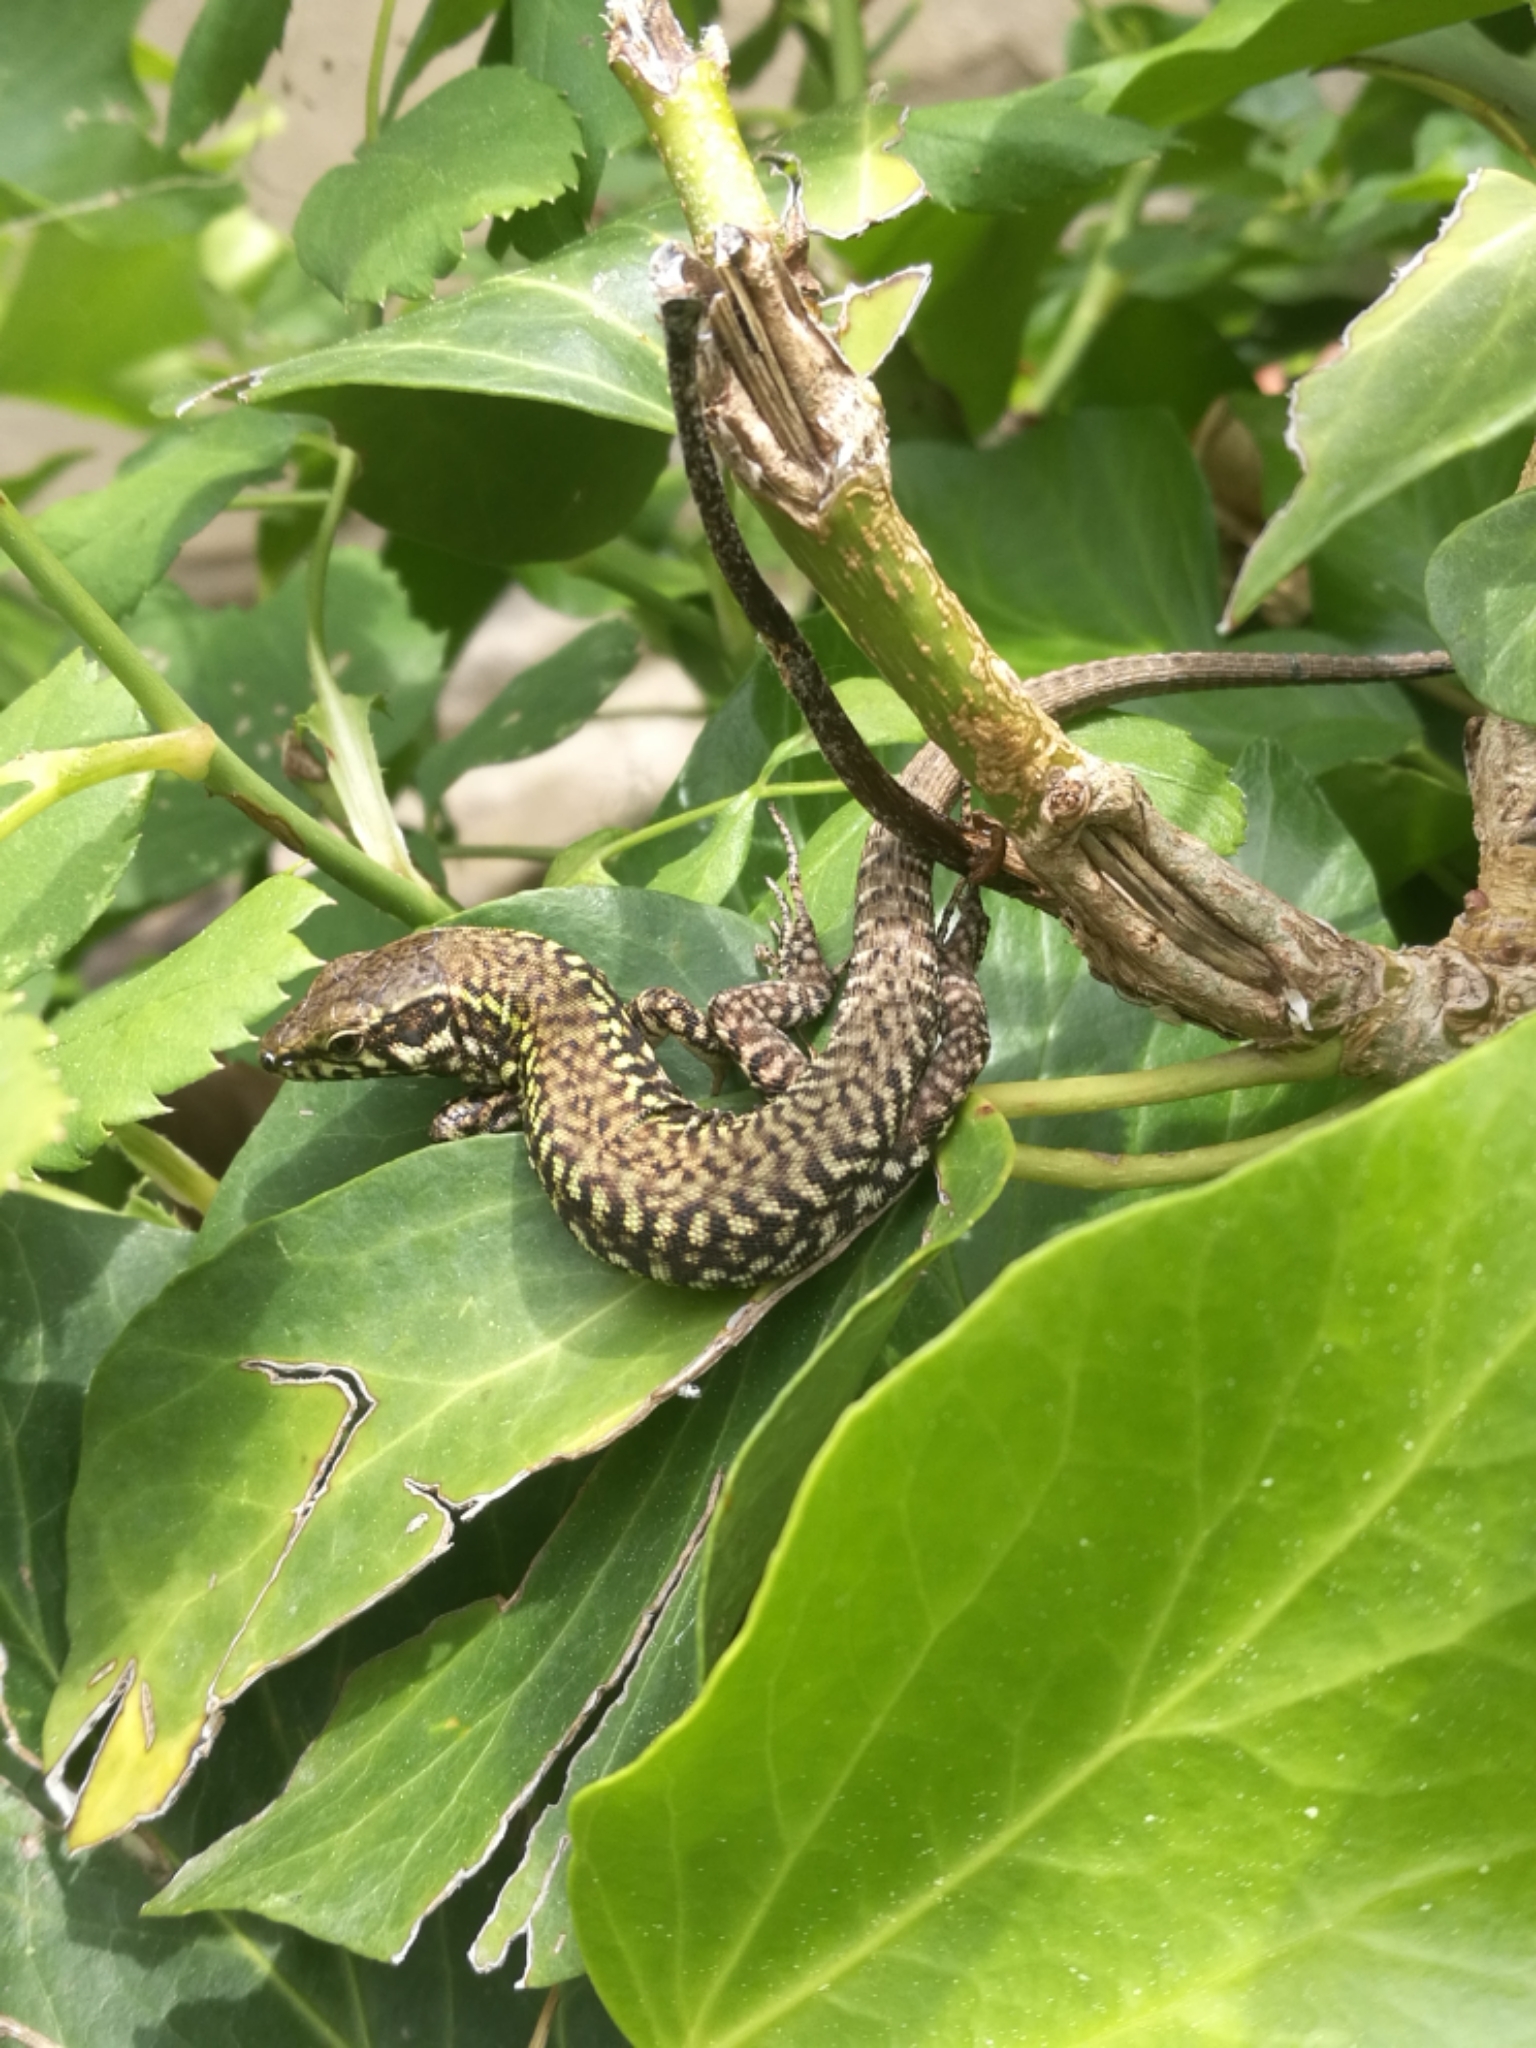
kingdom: Animalia
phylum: Chordata
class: Squamata
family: Lacertidae
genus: Podarcis
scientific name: Podarcis muralis
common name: Common wall lizard
